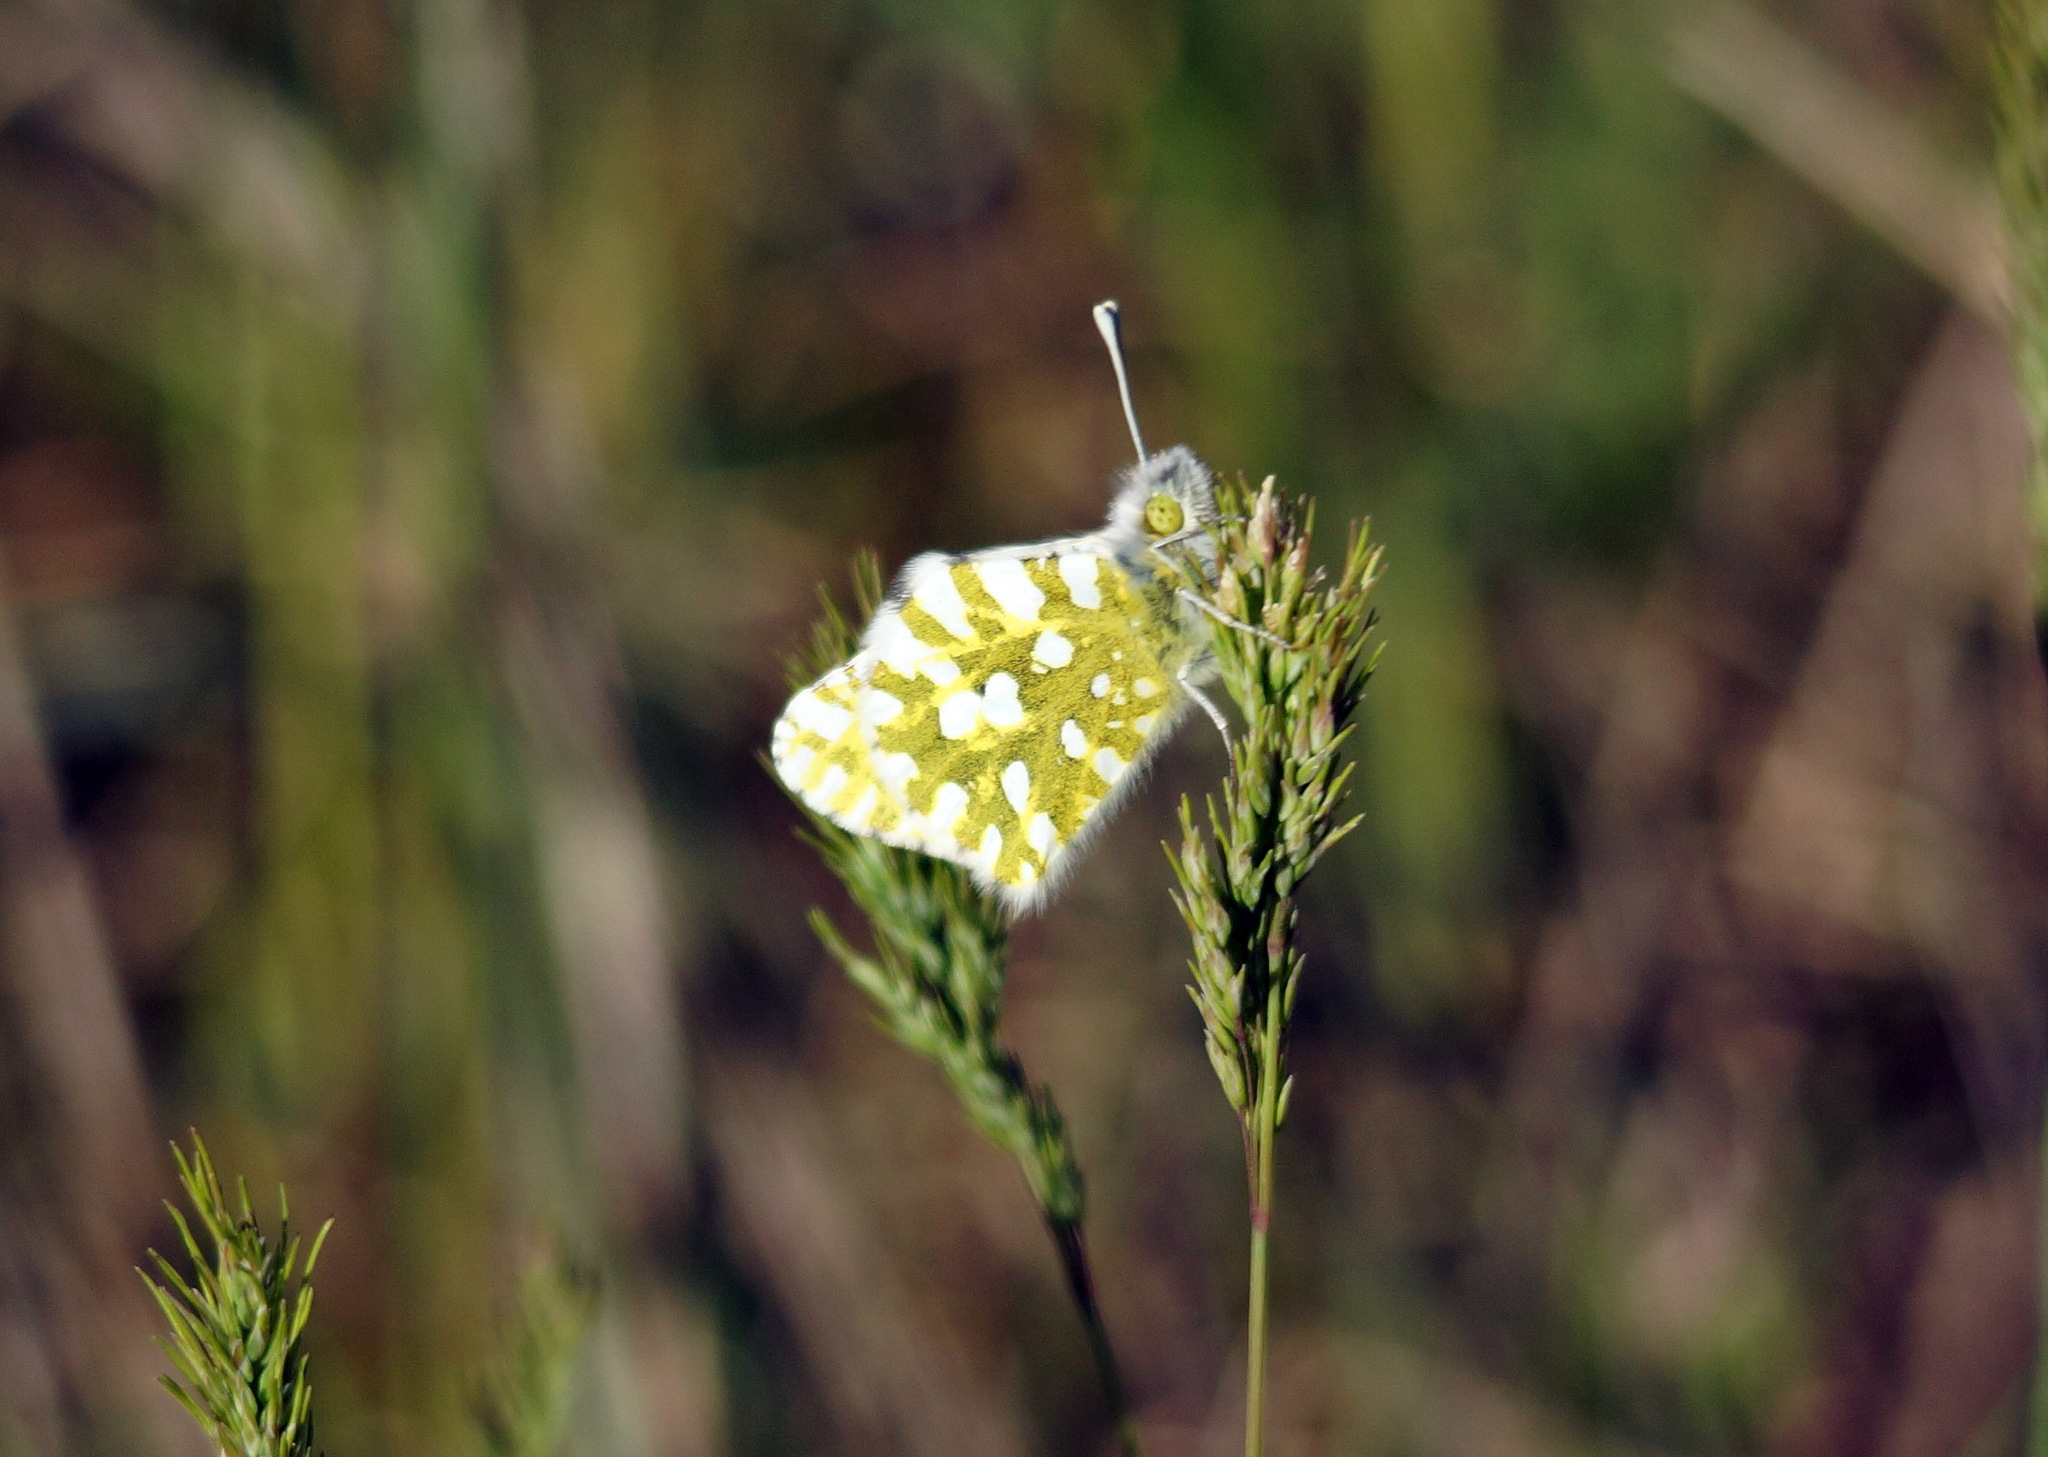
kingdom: Animalia
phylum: Arthropoda
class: Insecta
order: Lepidoptera
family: Pieridae
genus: Euchloe
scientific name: Euchloe ausonia
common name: Eastern dappled white
